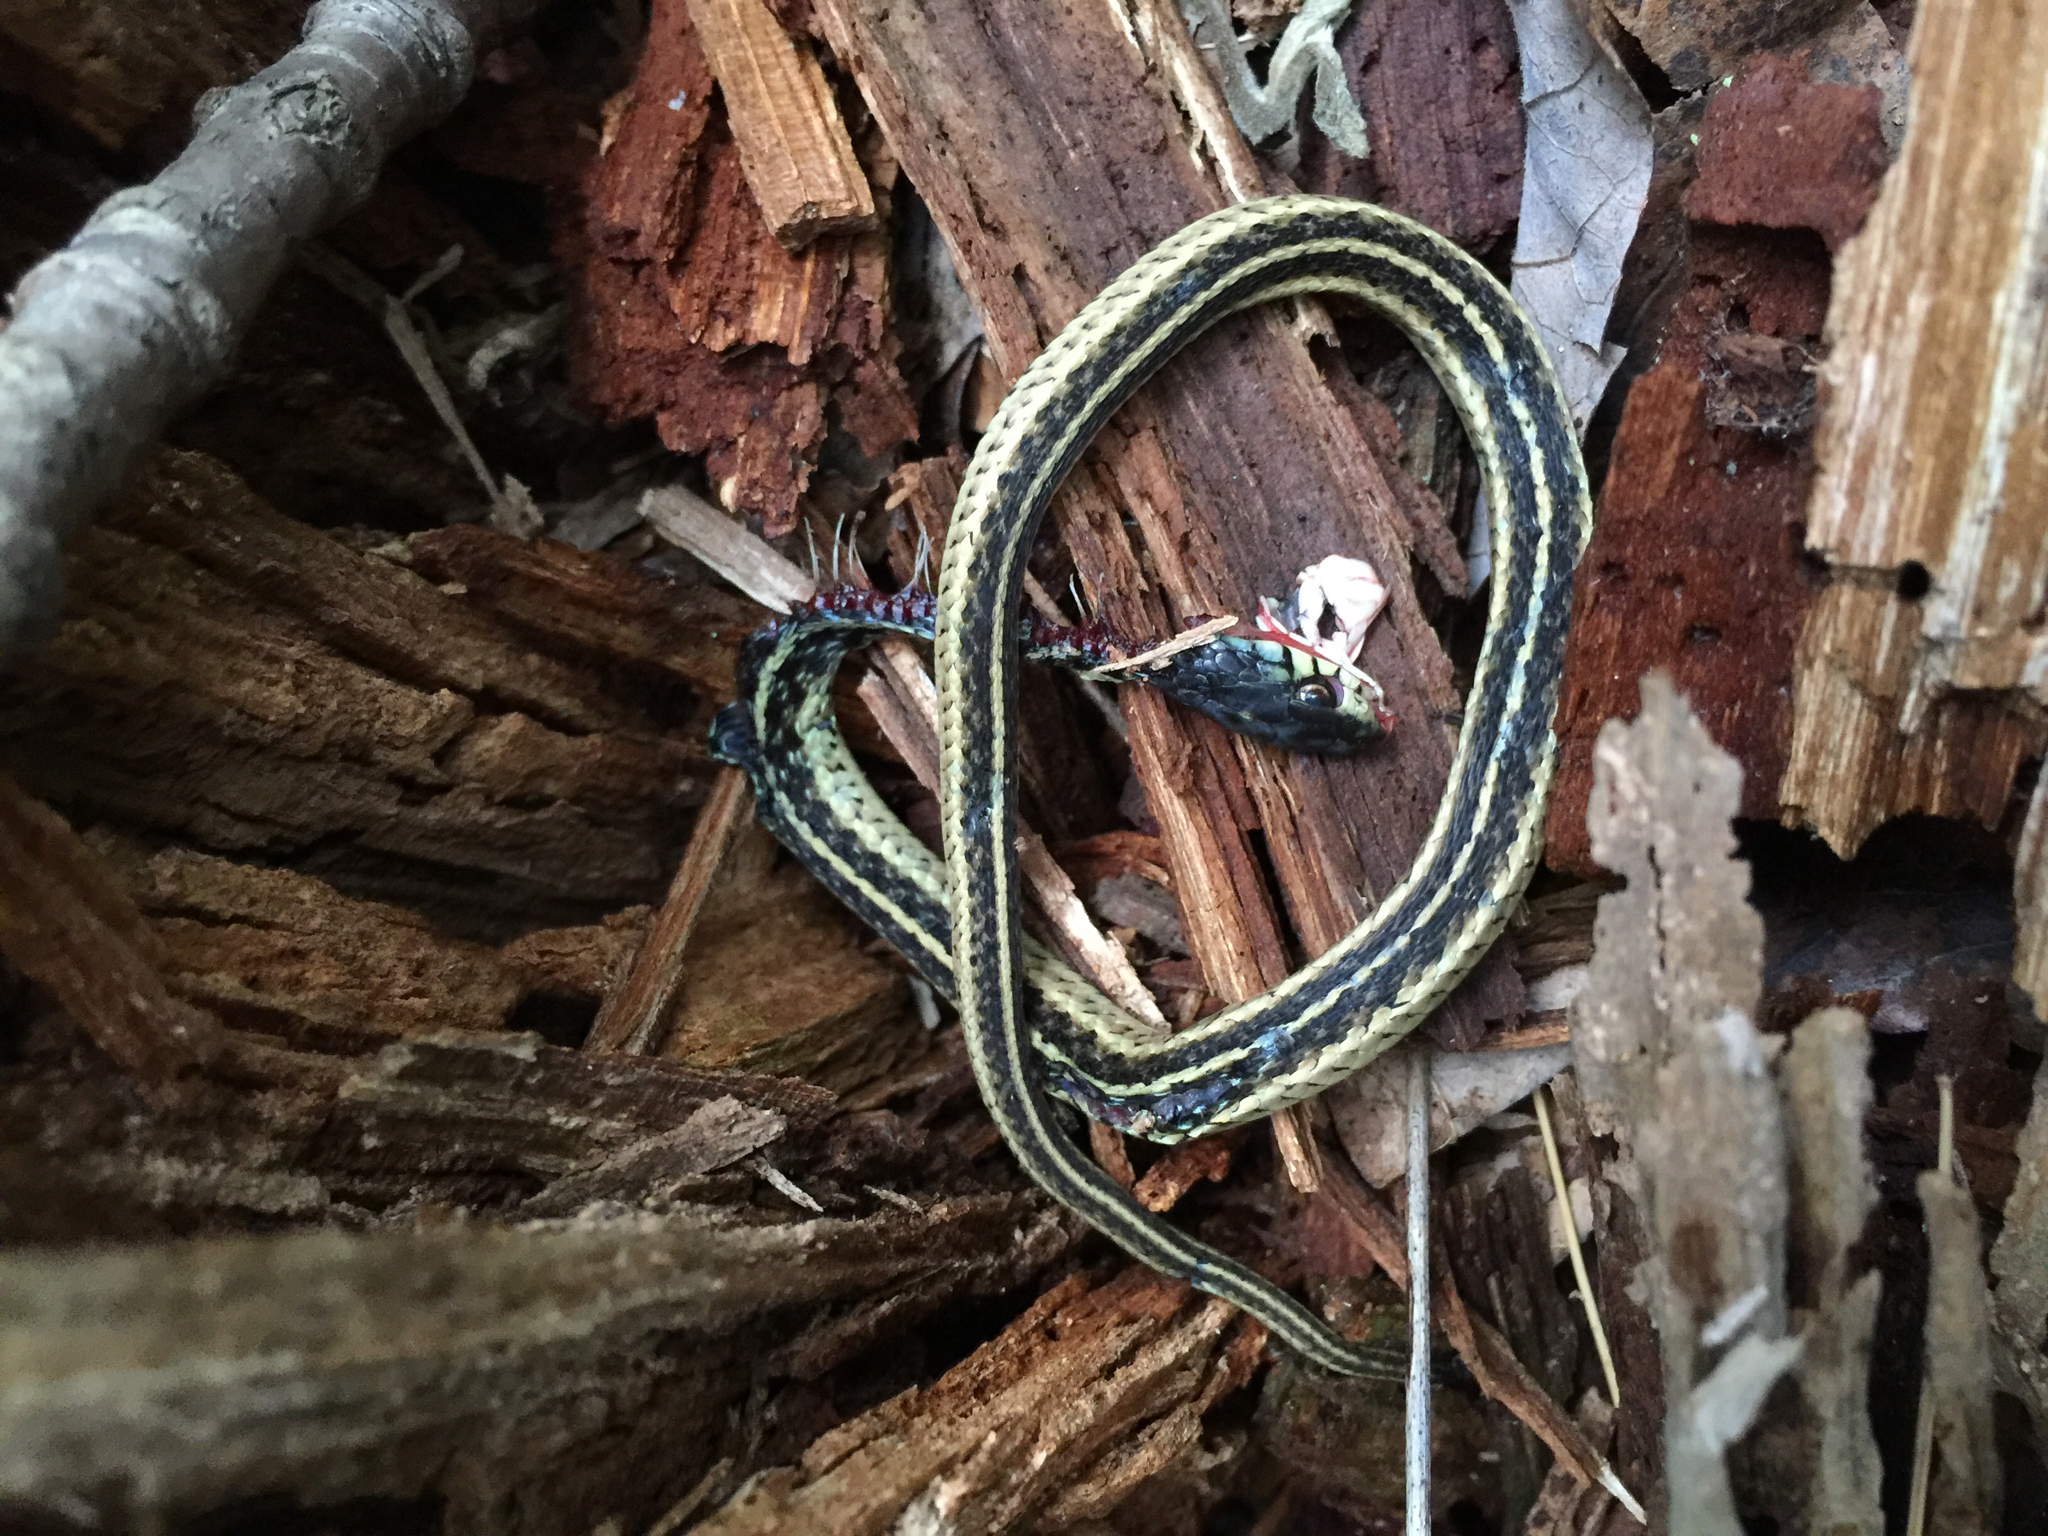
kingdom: Animalia
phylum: Chordata
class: Squamata
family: Colubridae
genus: Thamnophis
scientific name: Thamnophis sirtalis
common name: Common garter snake
